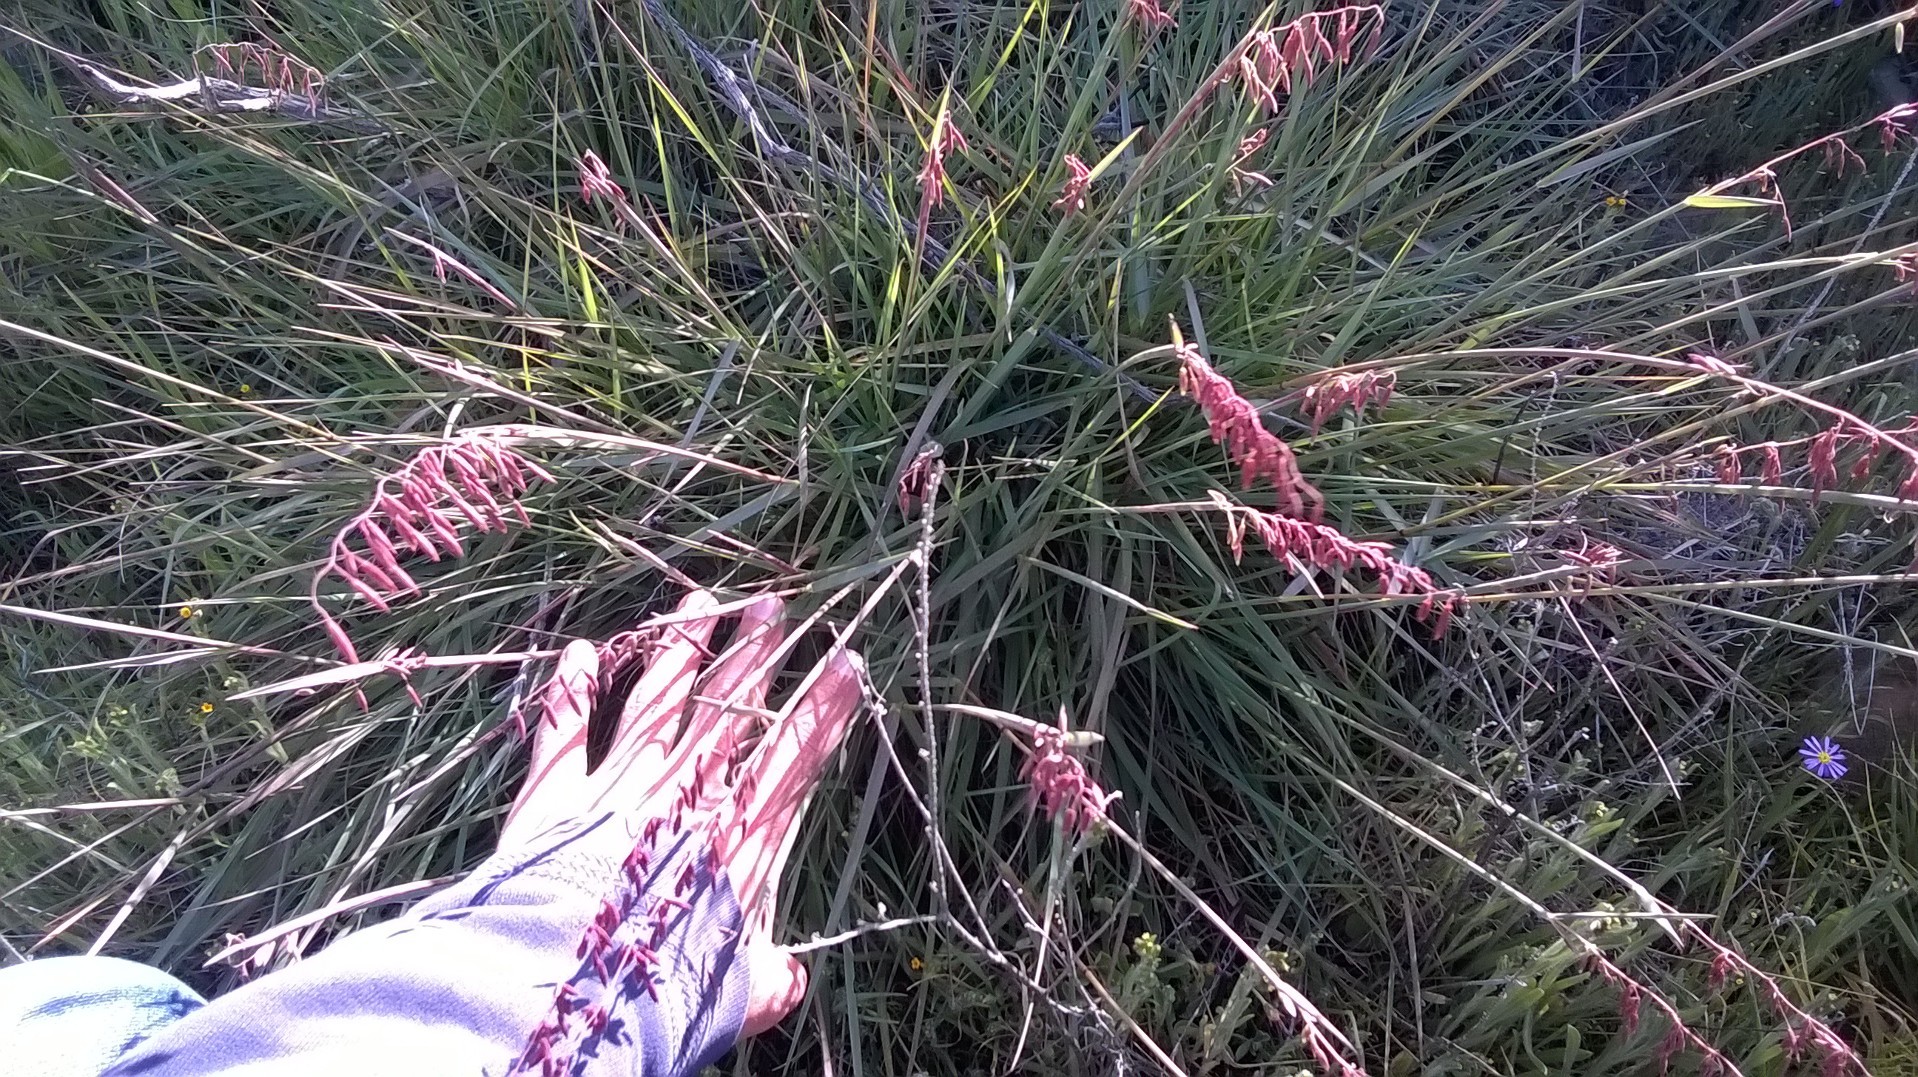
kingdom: Plantae
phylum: Tracheophyta
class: Liliopsida
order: Poales
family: Poaceae
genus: Ehrharta
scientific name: Ehrharta calycina
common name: Perennial veldtgrass
